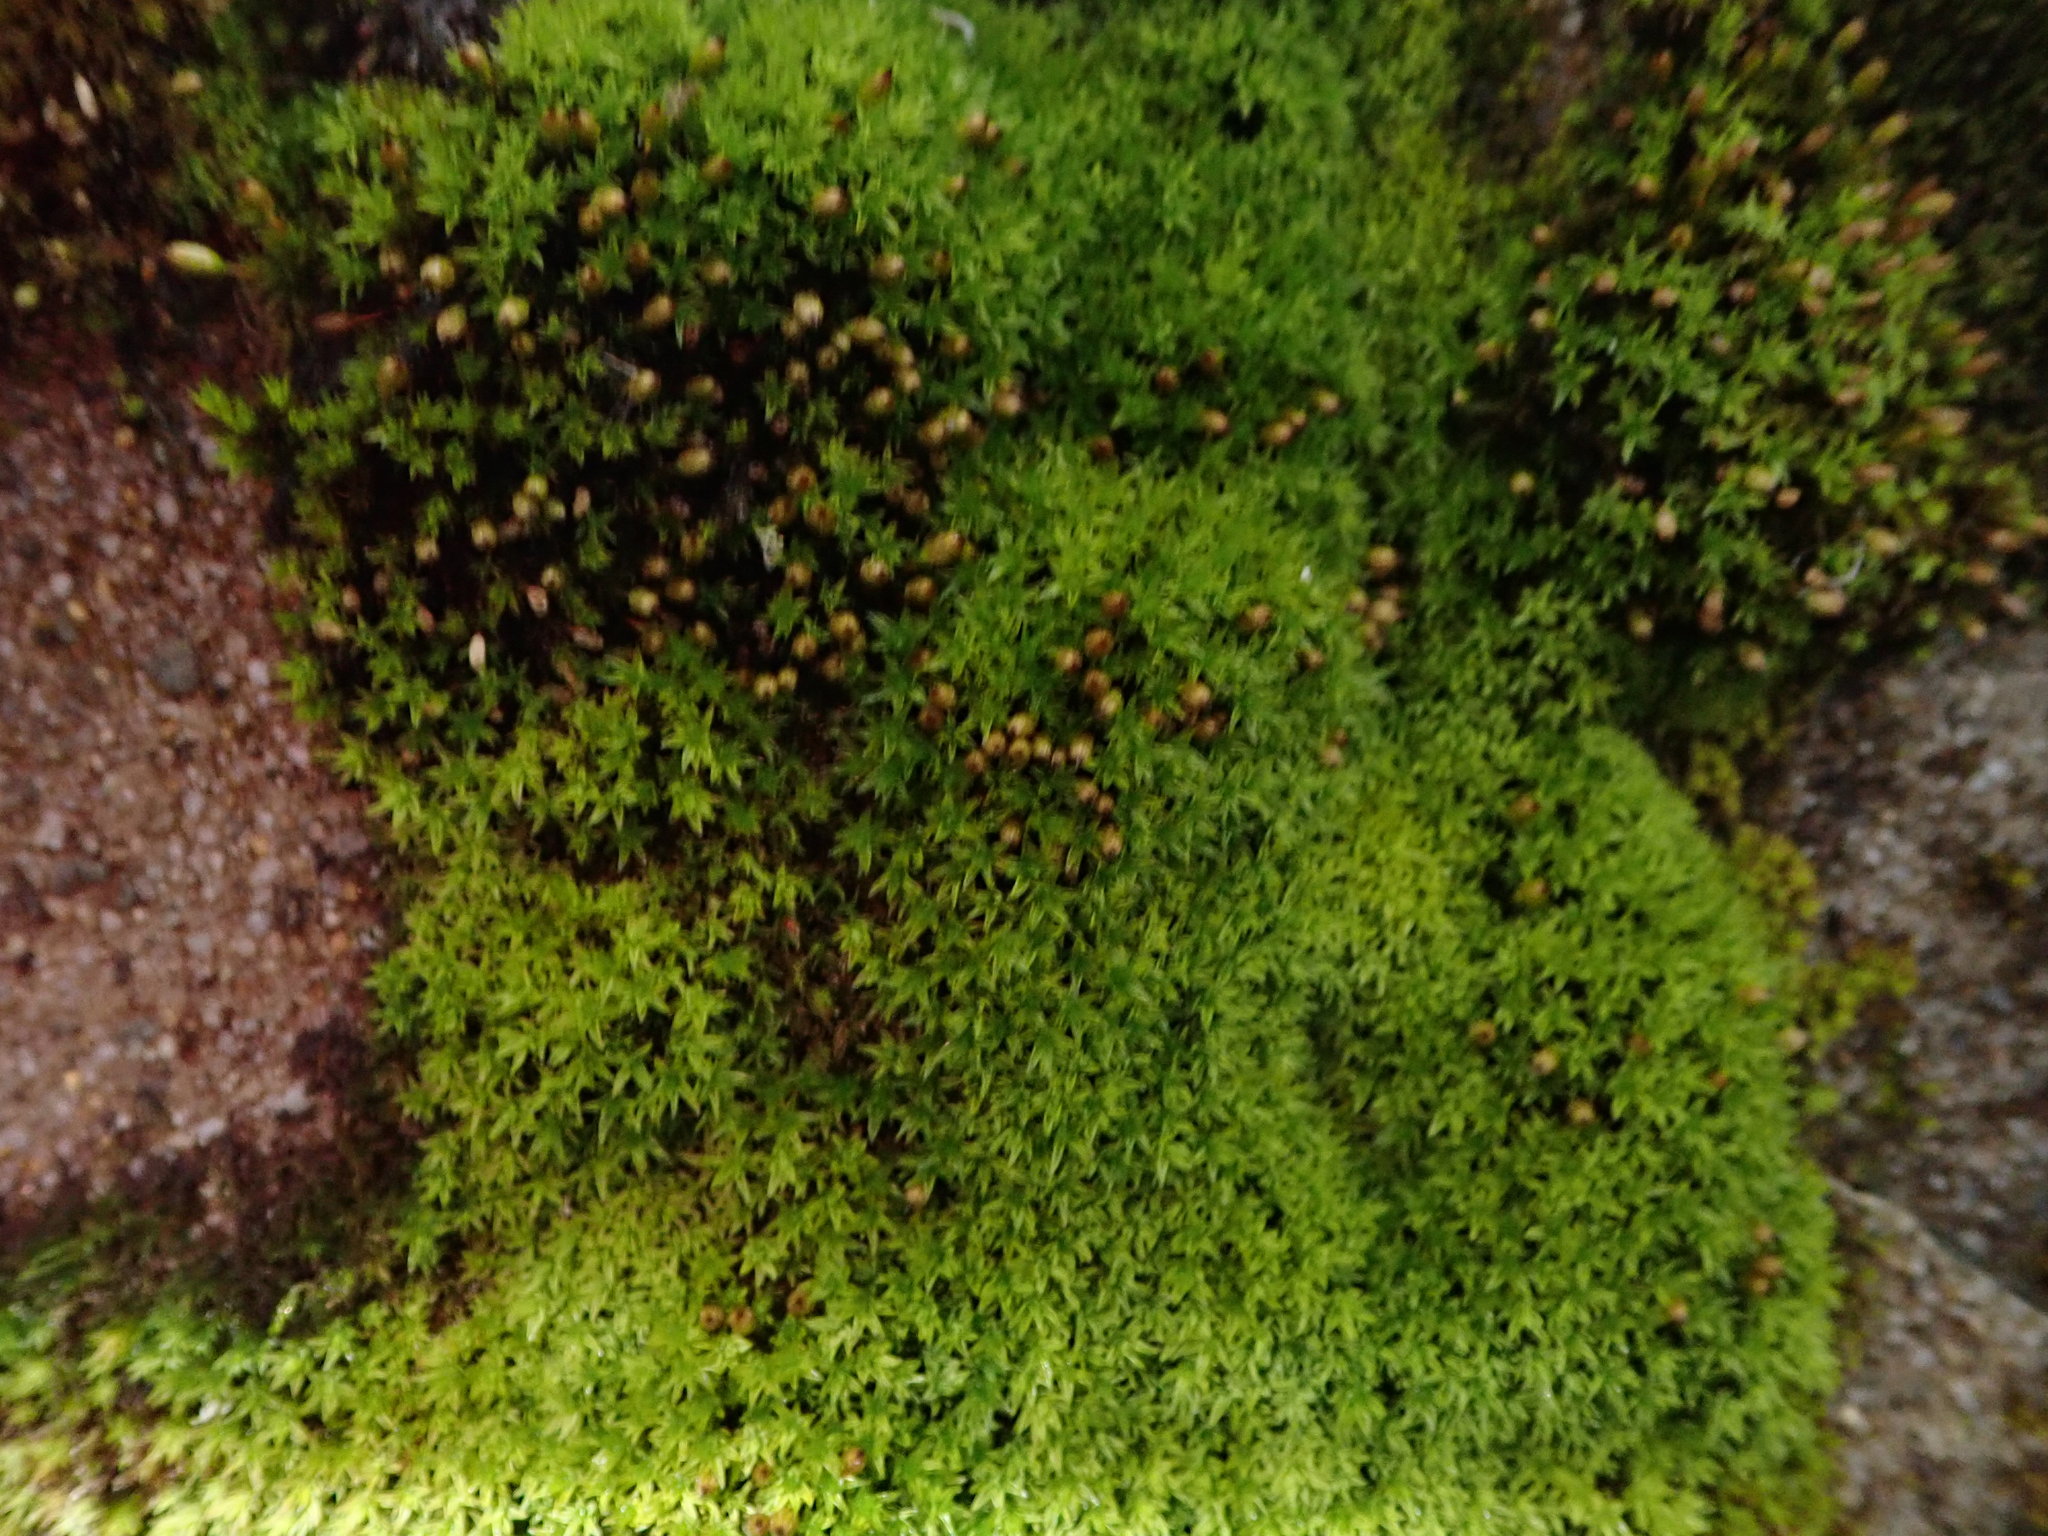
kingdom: Plantae
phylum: Bryophyta
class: Bryopsida
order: Dicranales
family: Rhabdoweisiaceae
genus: Dicranoweisia
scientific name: Dicranoweisia cirrata
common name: Common pincushion
